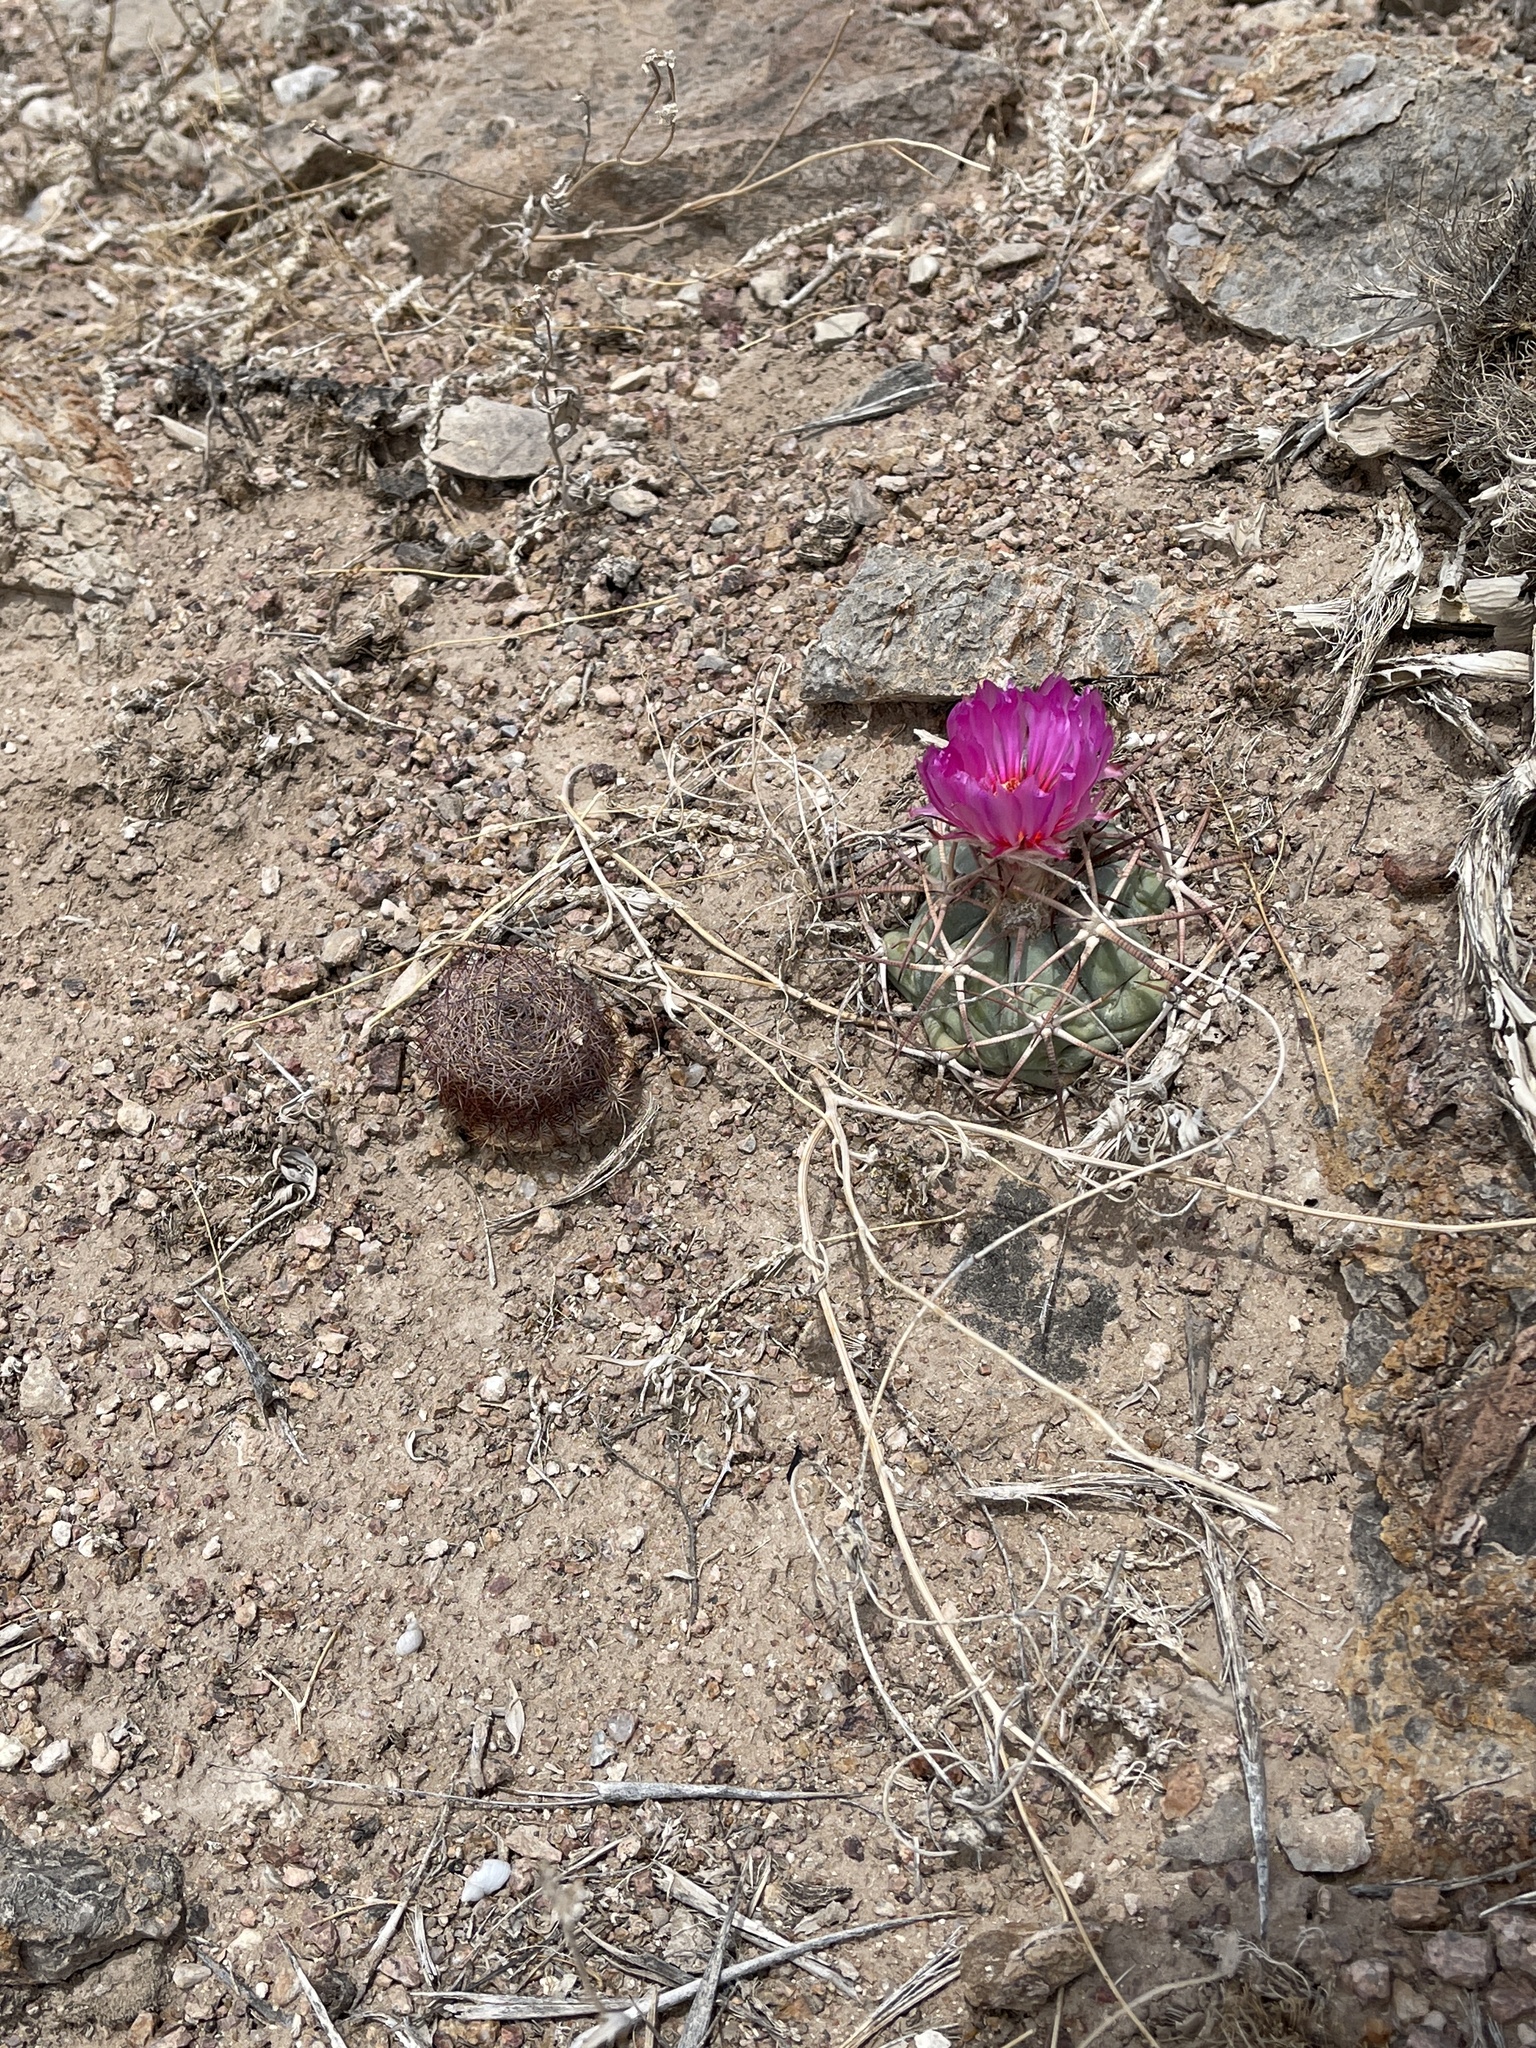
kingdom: Plantae
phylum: Tracheophyta
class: Magnoliopsida
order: Caryophyllales
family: Cactaceae
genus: Echinocactus
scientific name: Echinocactus horizonthalonius
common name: Devilshead
